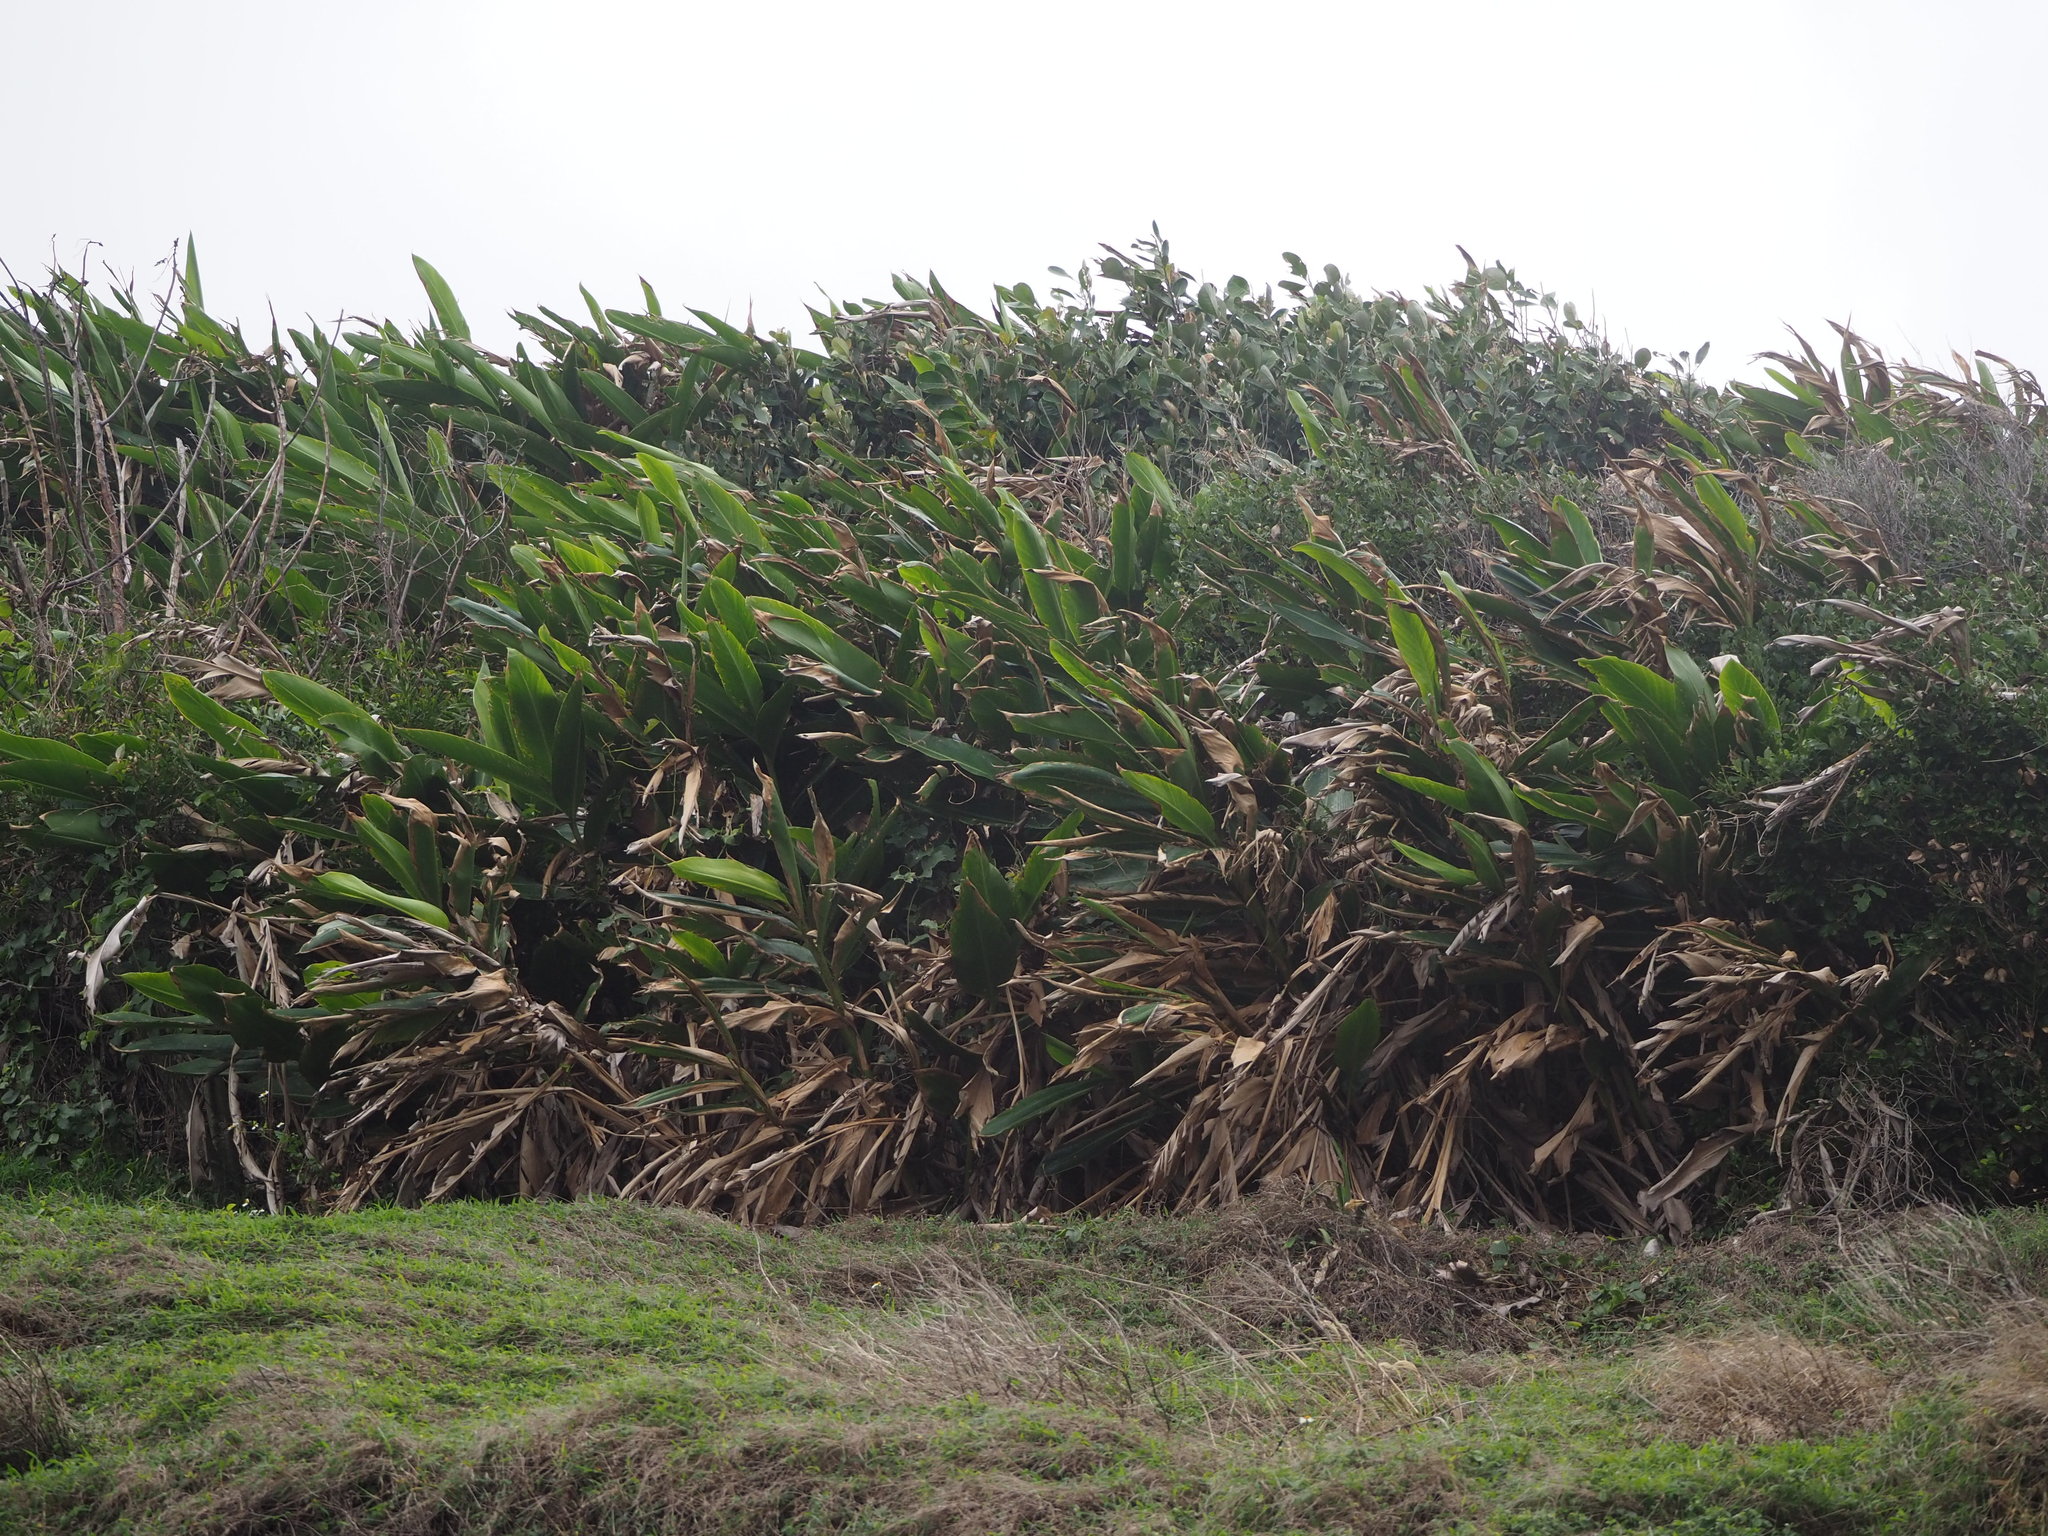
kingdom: Plantae
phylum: Tracheophyta
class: Liliopsida
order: Zingiberales
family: Zingiberaceae
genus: Alpinia
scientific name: Alpinia zerumbet
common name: Shellplant
